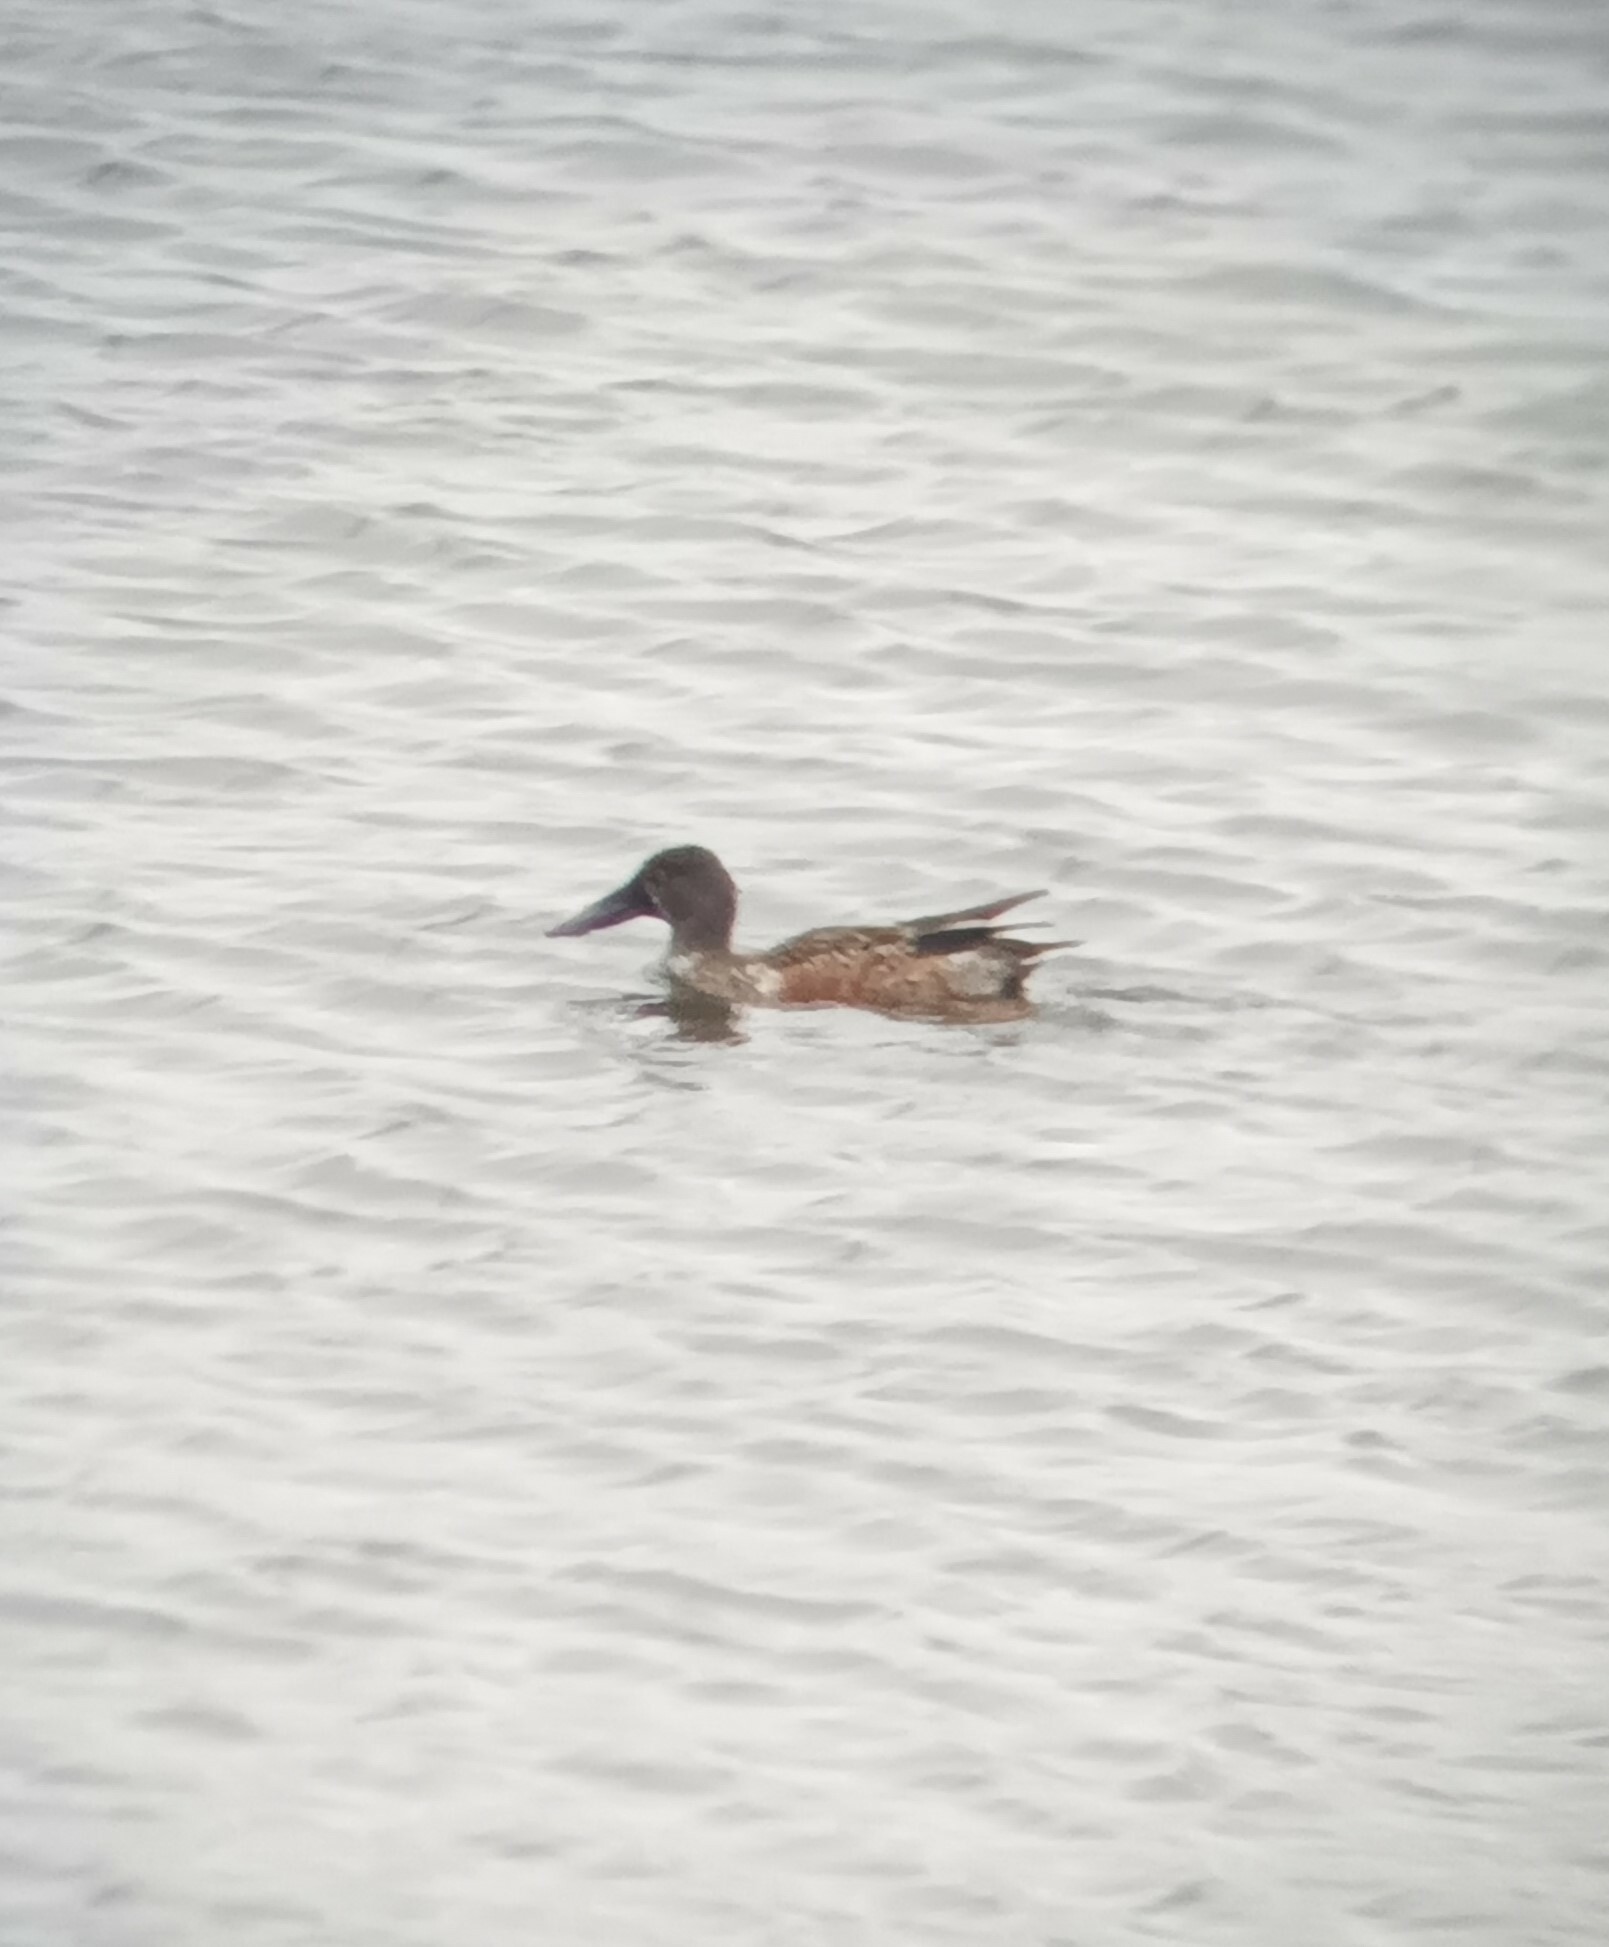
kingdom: Animalia
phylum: Chordata
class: Aves
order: Anseriformes
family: Anatidae
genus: Spatula
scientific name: Spatula clypeata
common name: Northern shoveler
